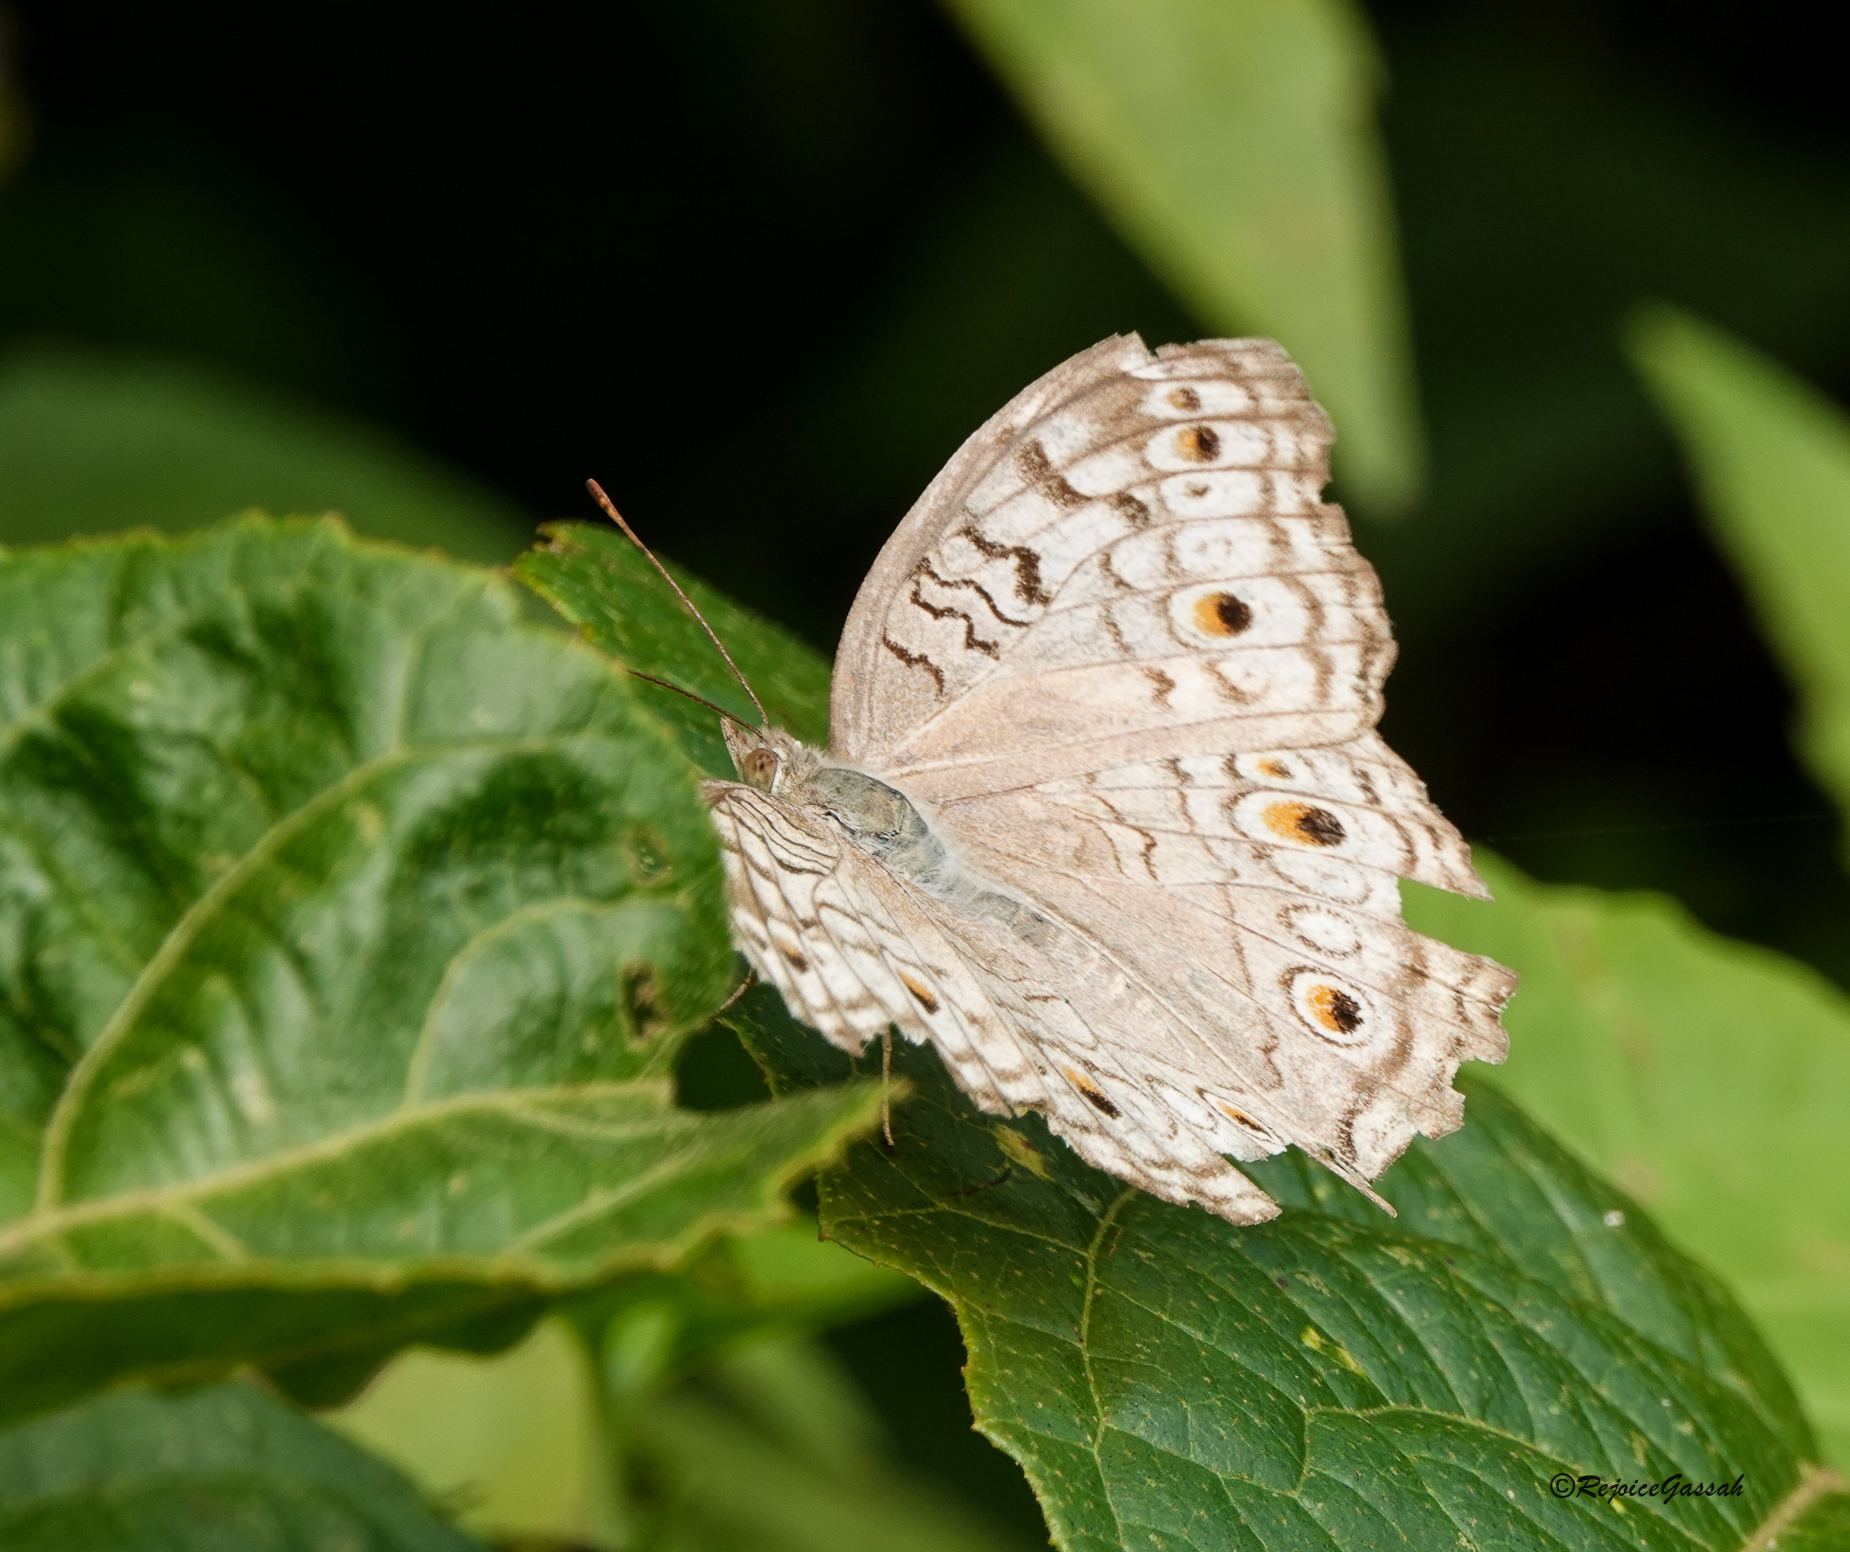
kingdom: Animalia
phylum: Arthropoda
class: Insecta
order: Lepidoptera
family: Nymphalidae
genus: Junonia
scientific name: Junonia atlites
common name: Grey pansy
